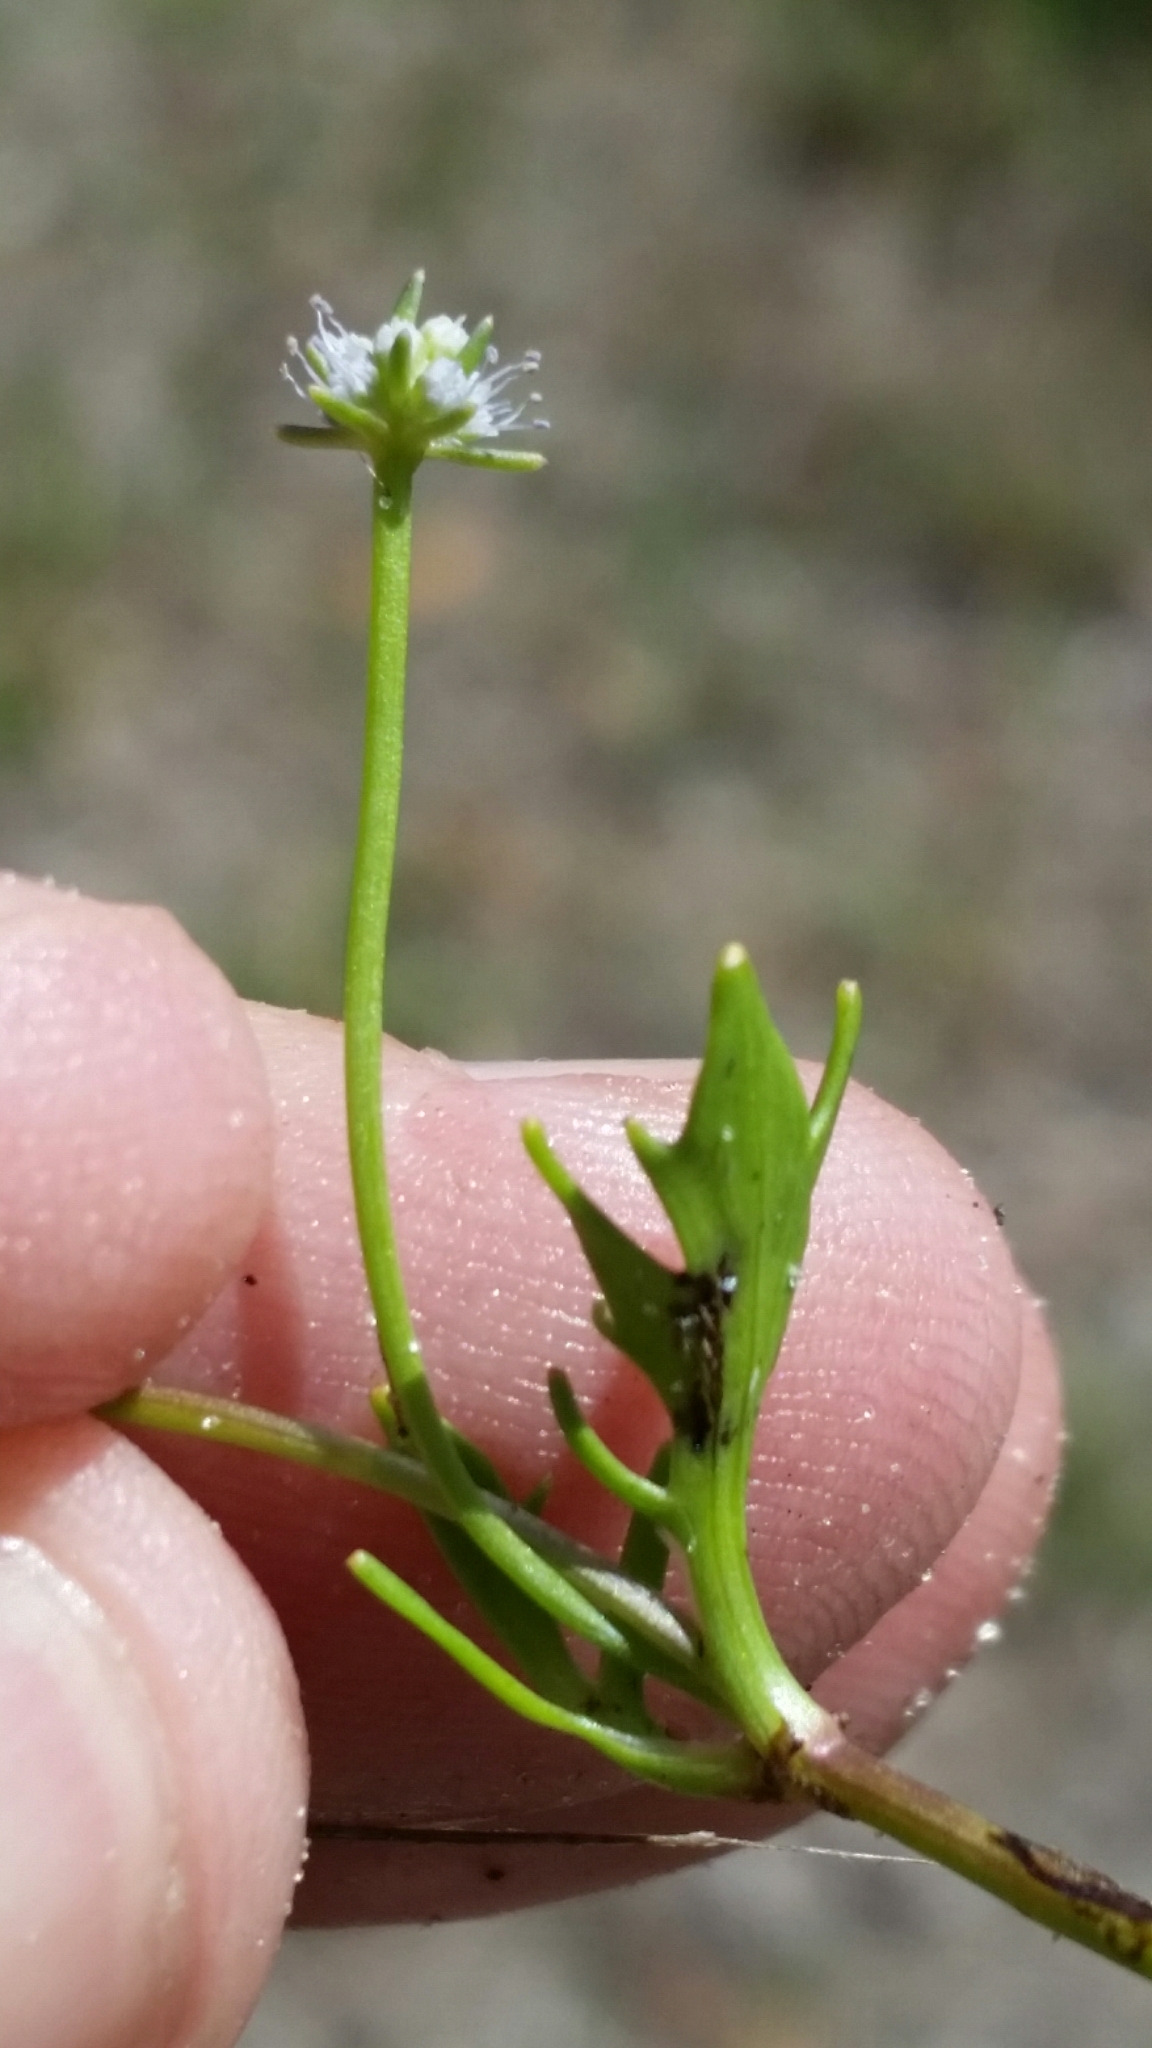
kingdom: Plantae
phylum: Tracheophyta
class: Magnoliopsida
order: Apiales
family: Apiaceae
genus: Eryngium
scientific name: Eryngium baldwinii
